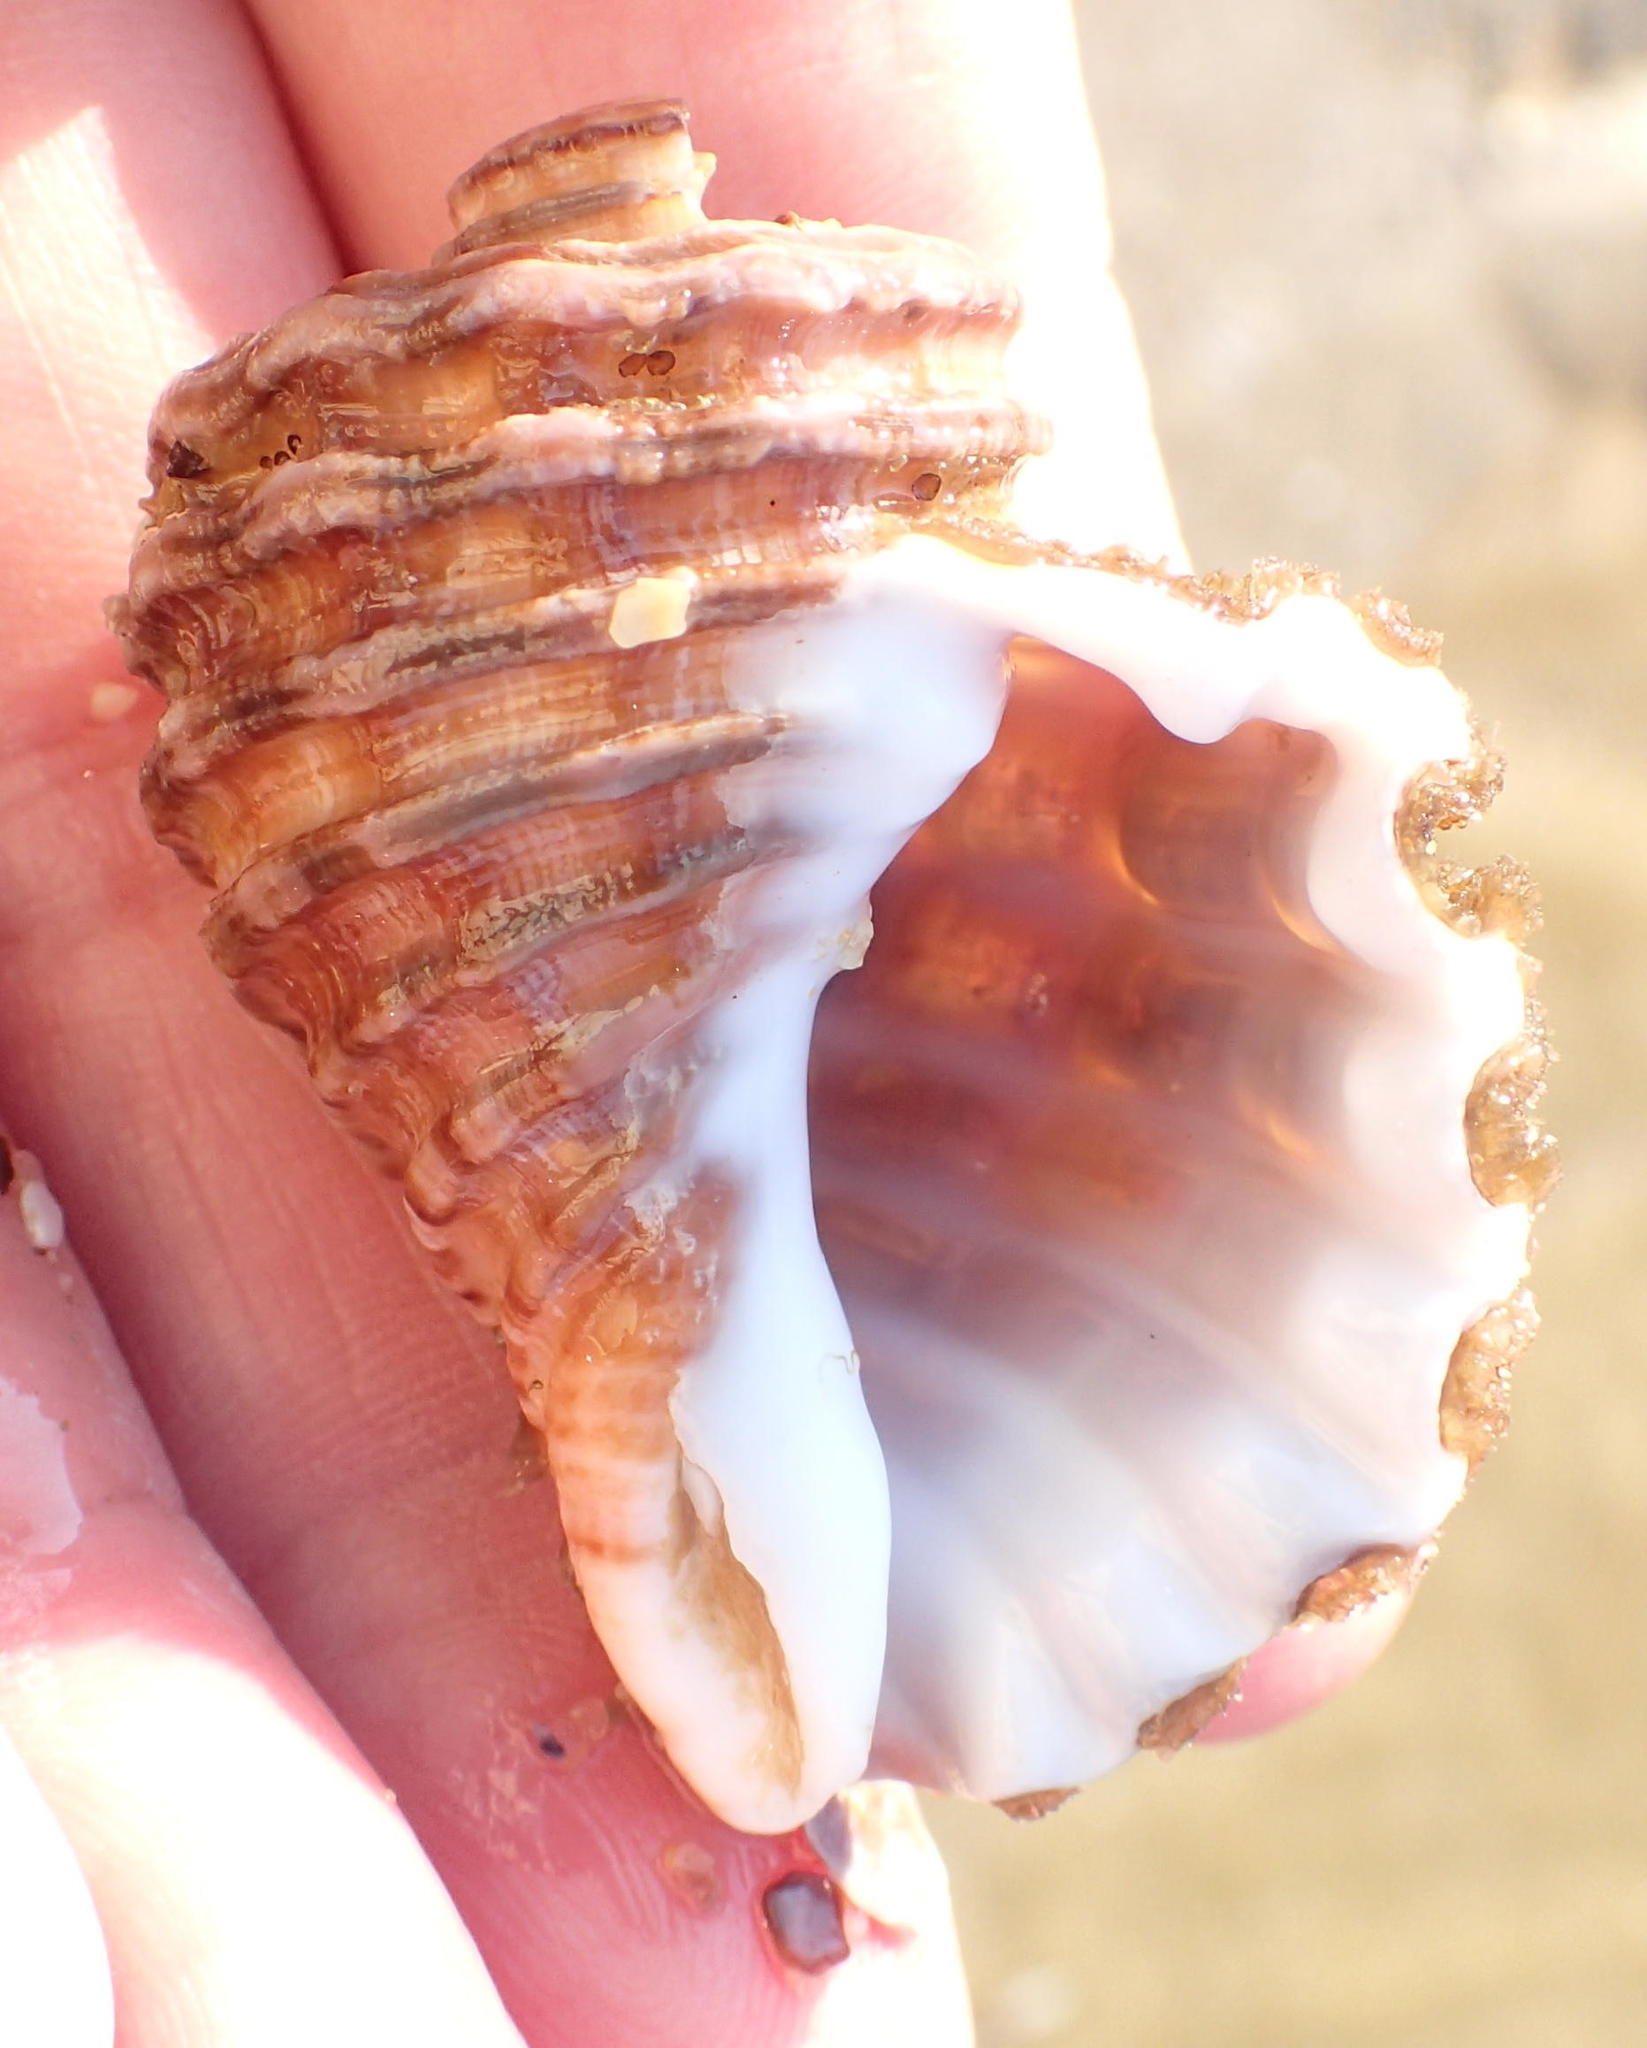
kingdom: Animalia
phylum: Mollusca
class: Gastropoda
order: Littorinimorpha
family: Cymatiidae
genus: Cabestana
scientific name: Cabestana africana
